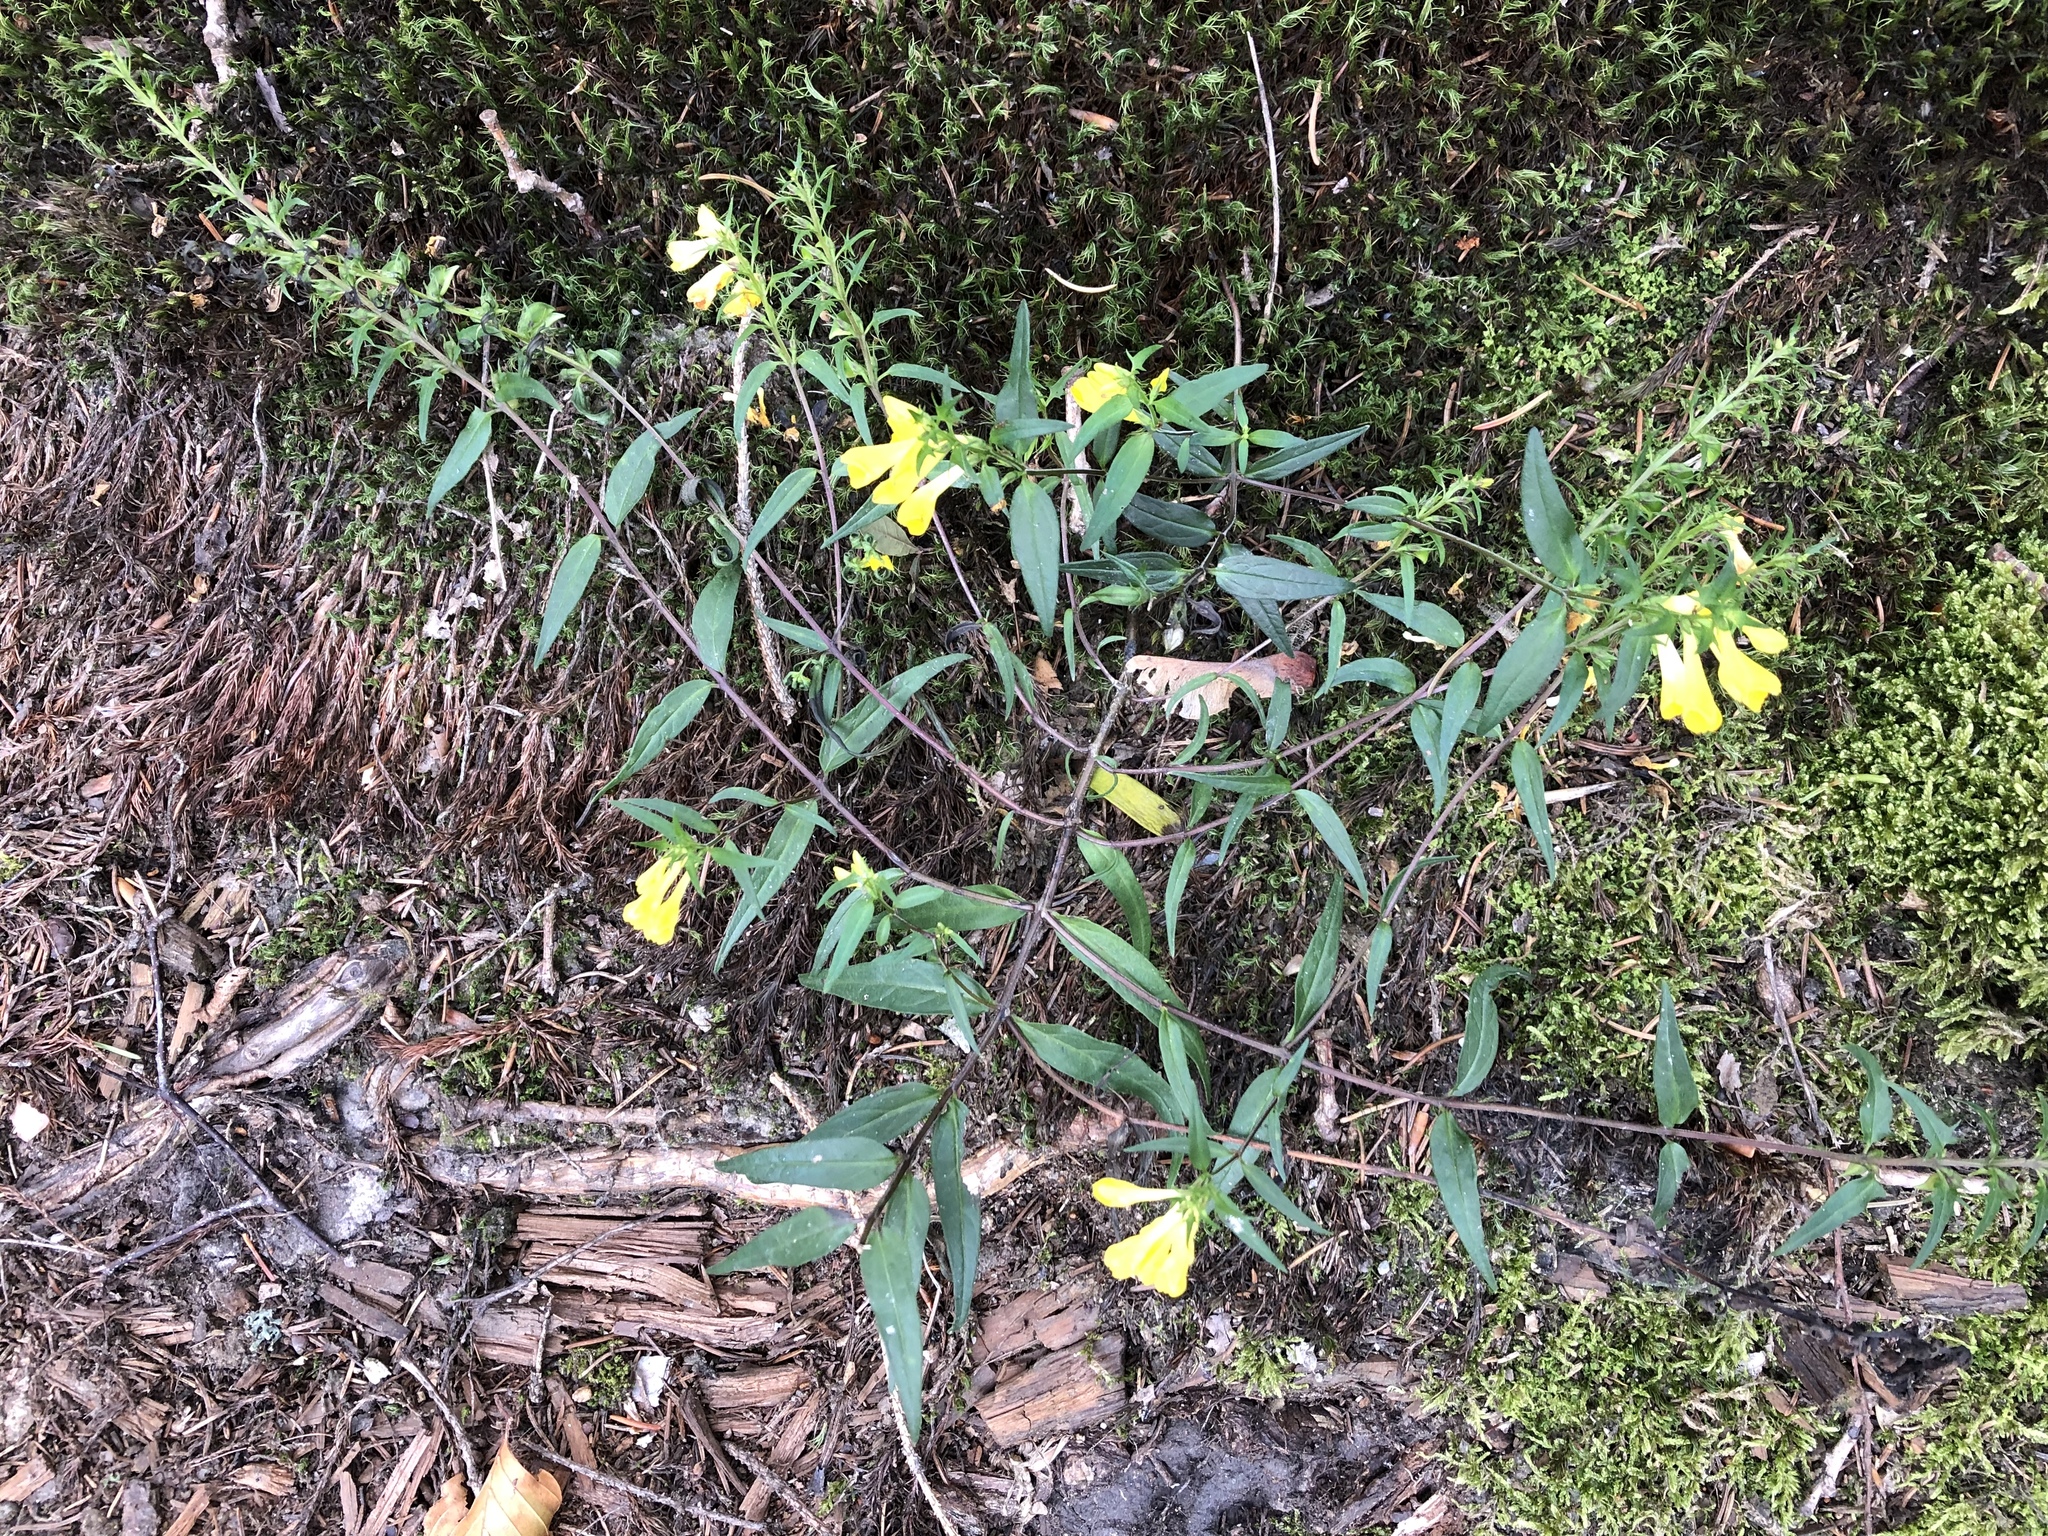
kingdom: Plantae
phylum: Tracheophyta
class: Magnoliopsida
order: Lamiales
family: Orobanchaceae
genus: Melampyrum
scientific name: Melampyrum pratense
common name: Common cow-wheat
